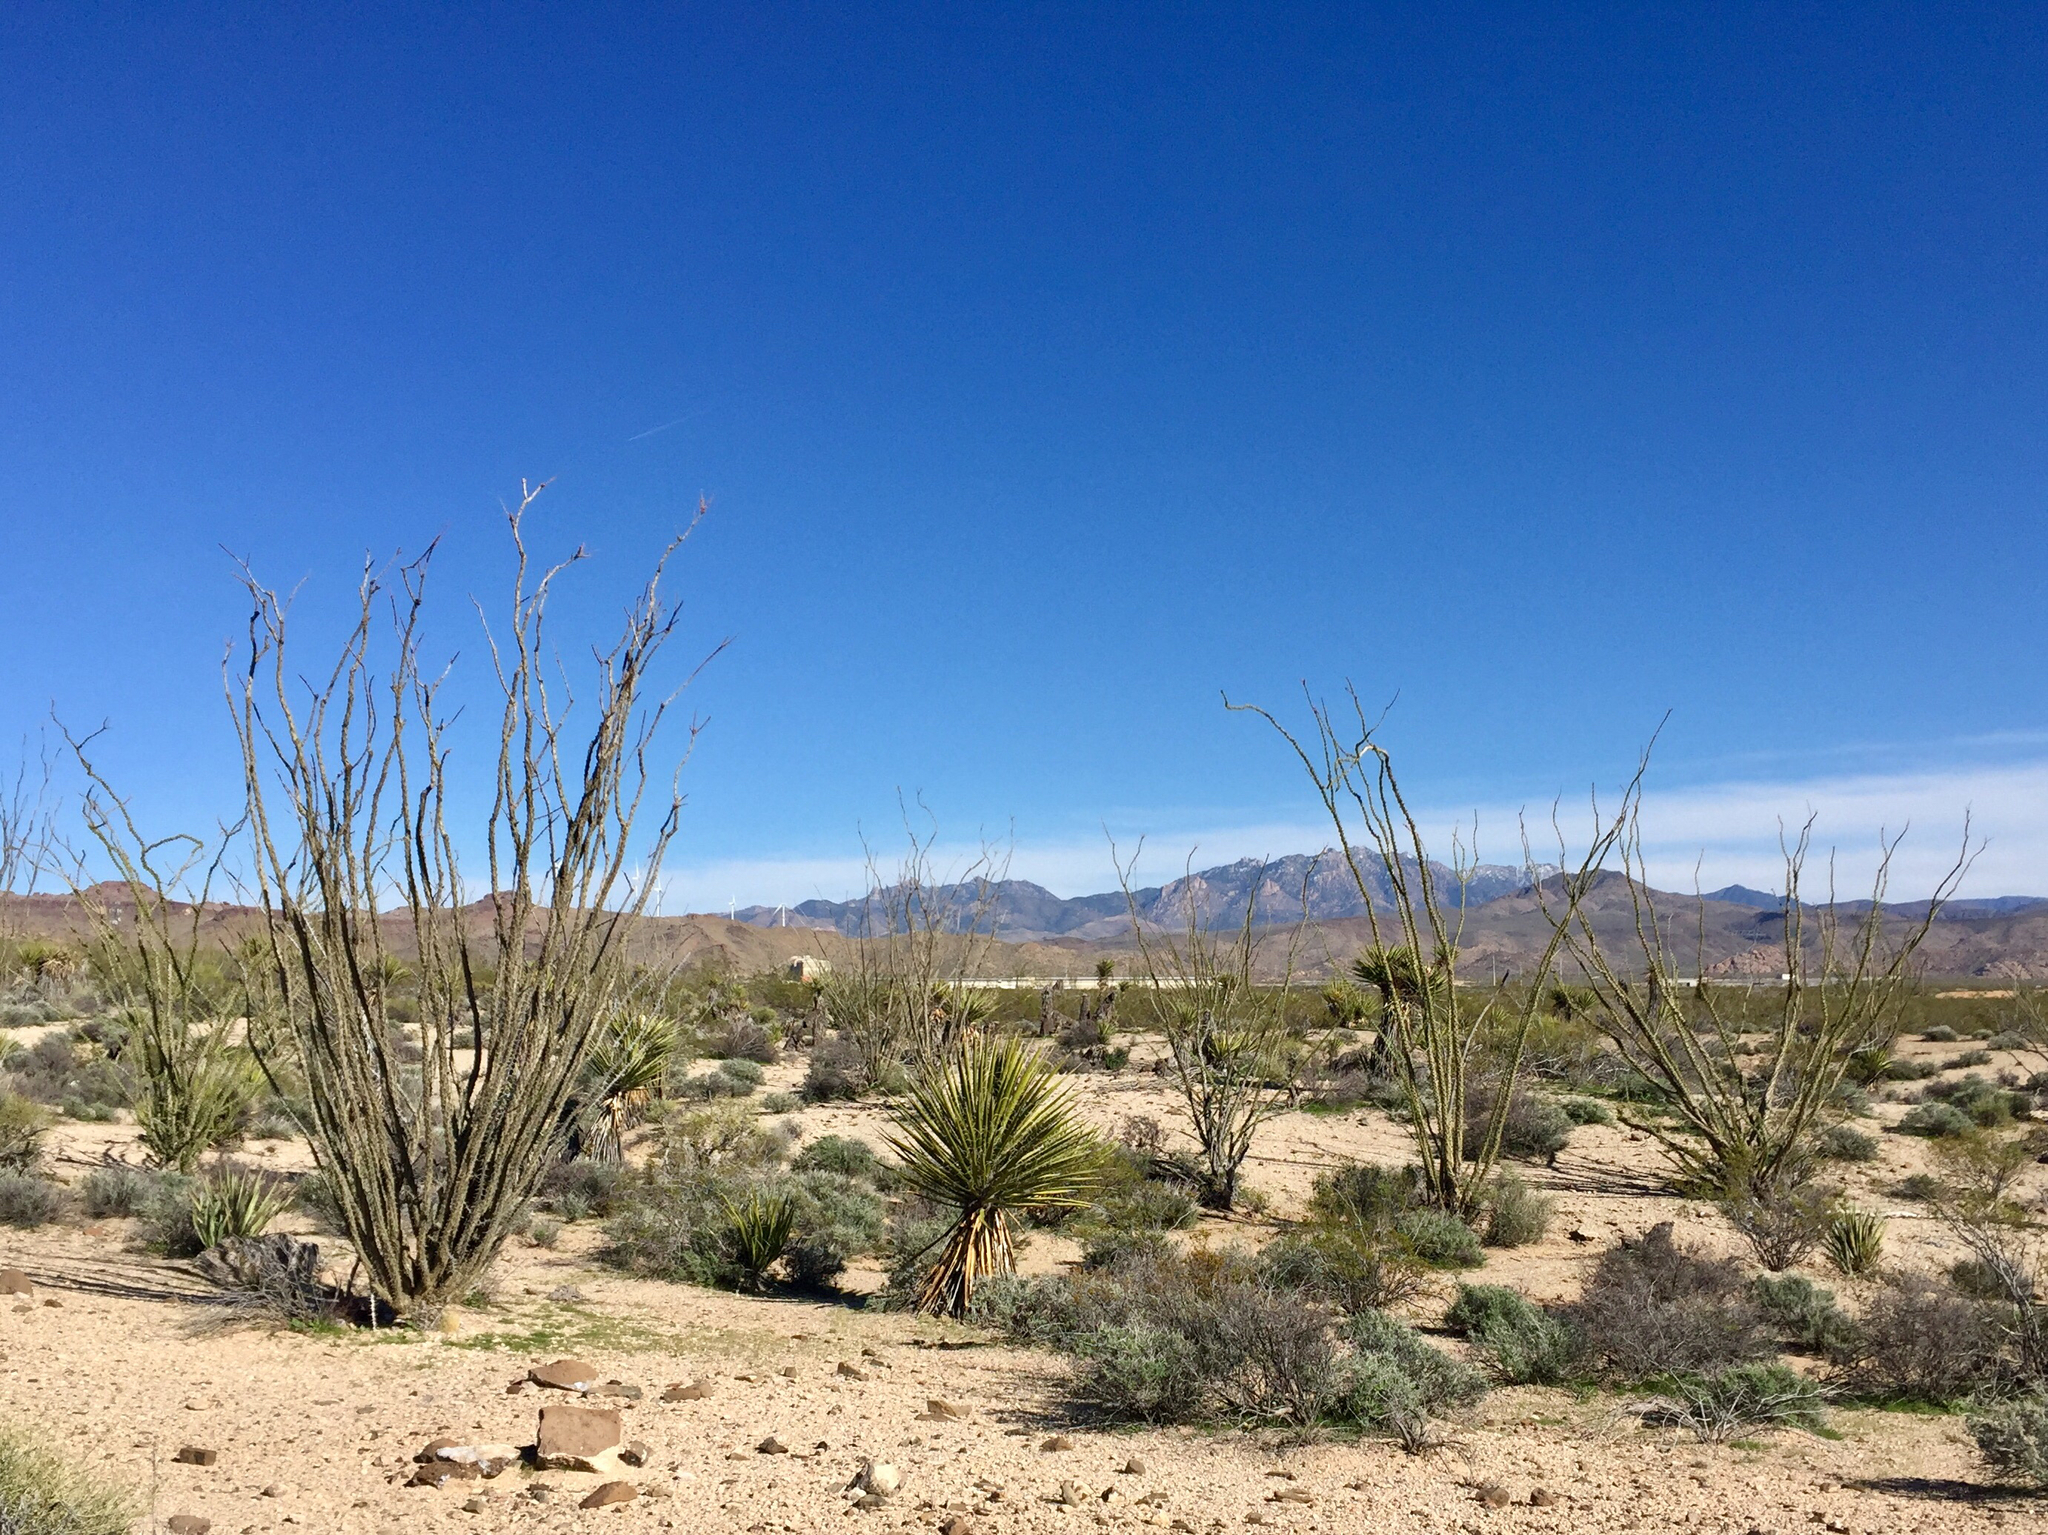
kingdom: Plantae
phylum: Tracheophyta
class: Magnoliopsida
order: Ericales
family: Fouquieriaceae
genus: Fouquieria
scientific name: Fouquieria splendens
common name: Vine-cactus
